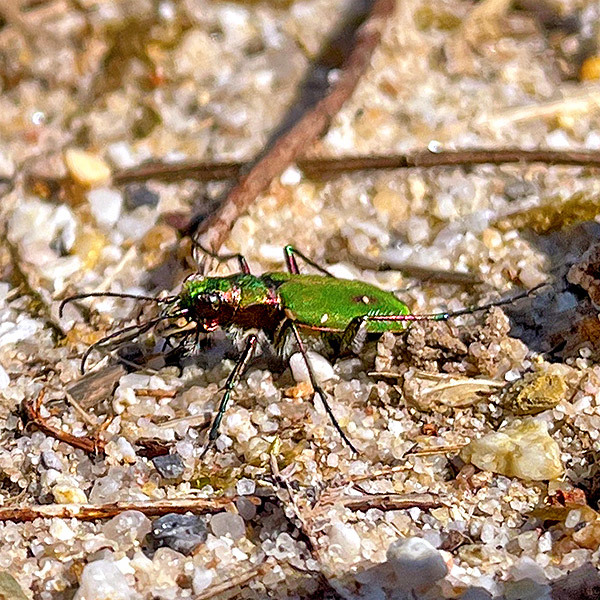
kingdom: Animalia
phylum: Arthropoda
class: Insecta
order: Coleoptera
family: Carabidae
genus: Cicindela
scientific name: Cicindela campestris
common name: Common tiger beetle
